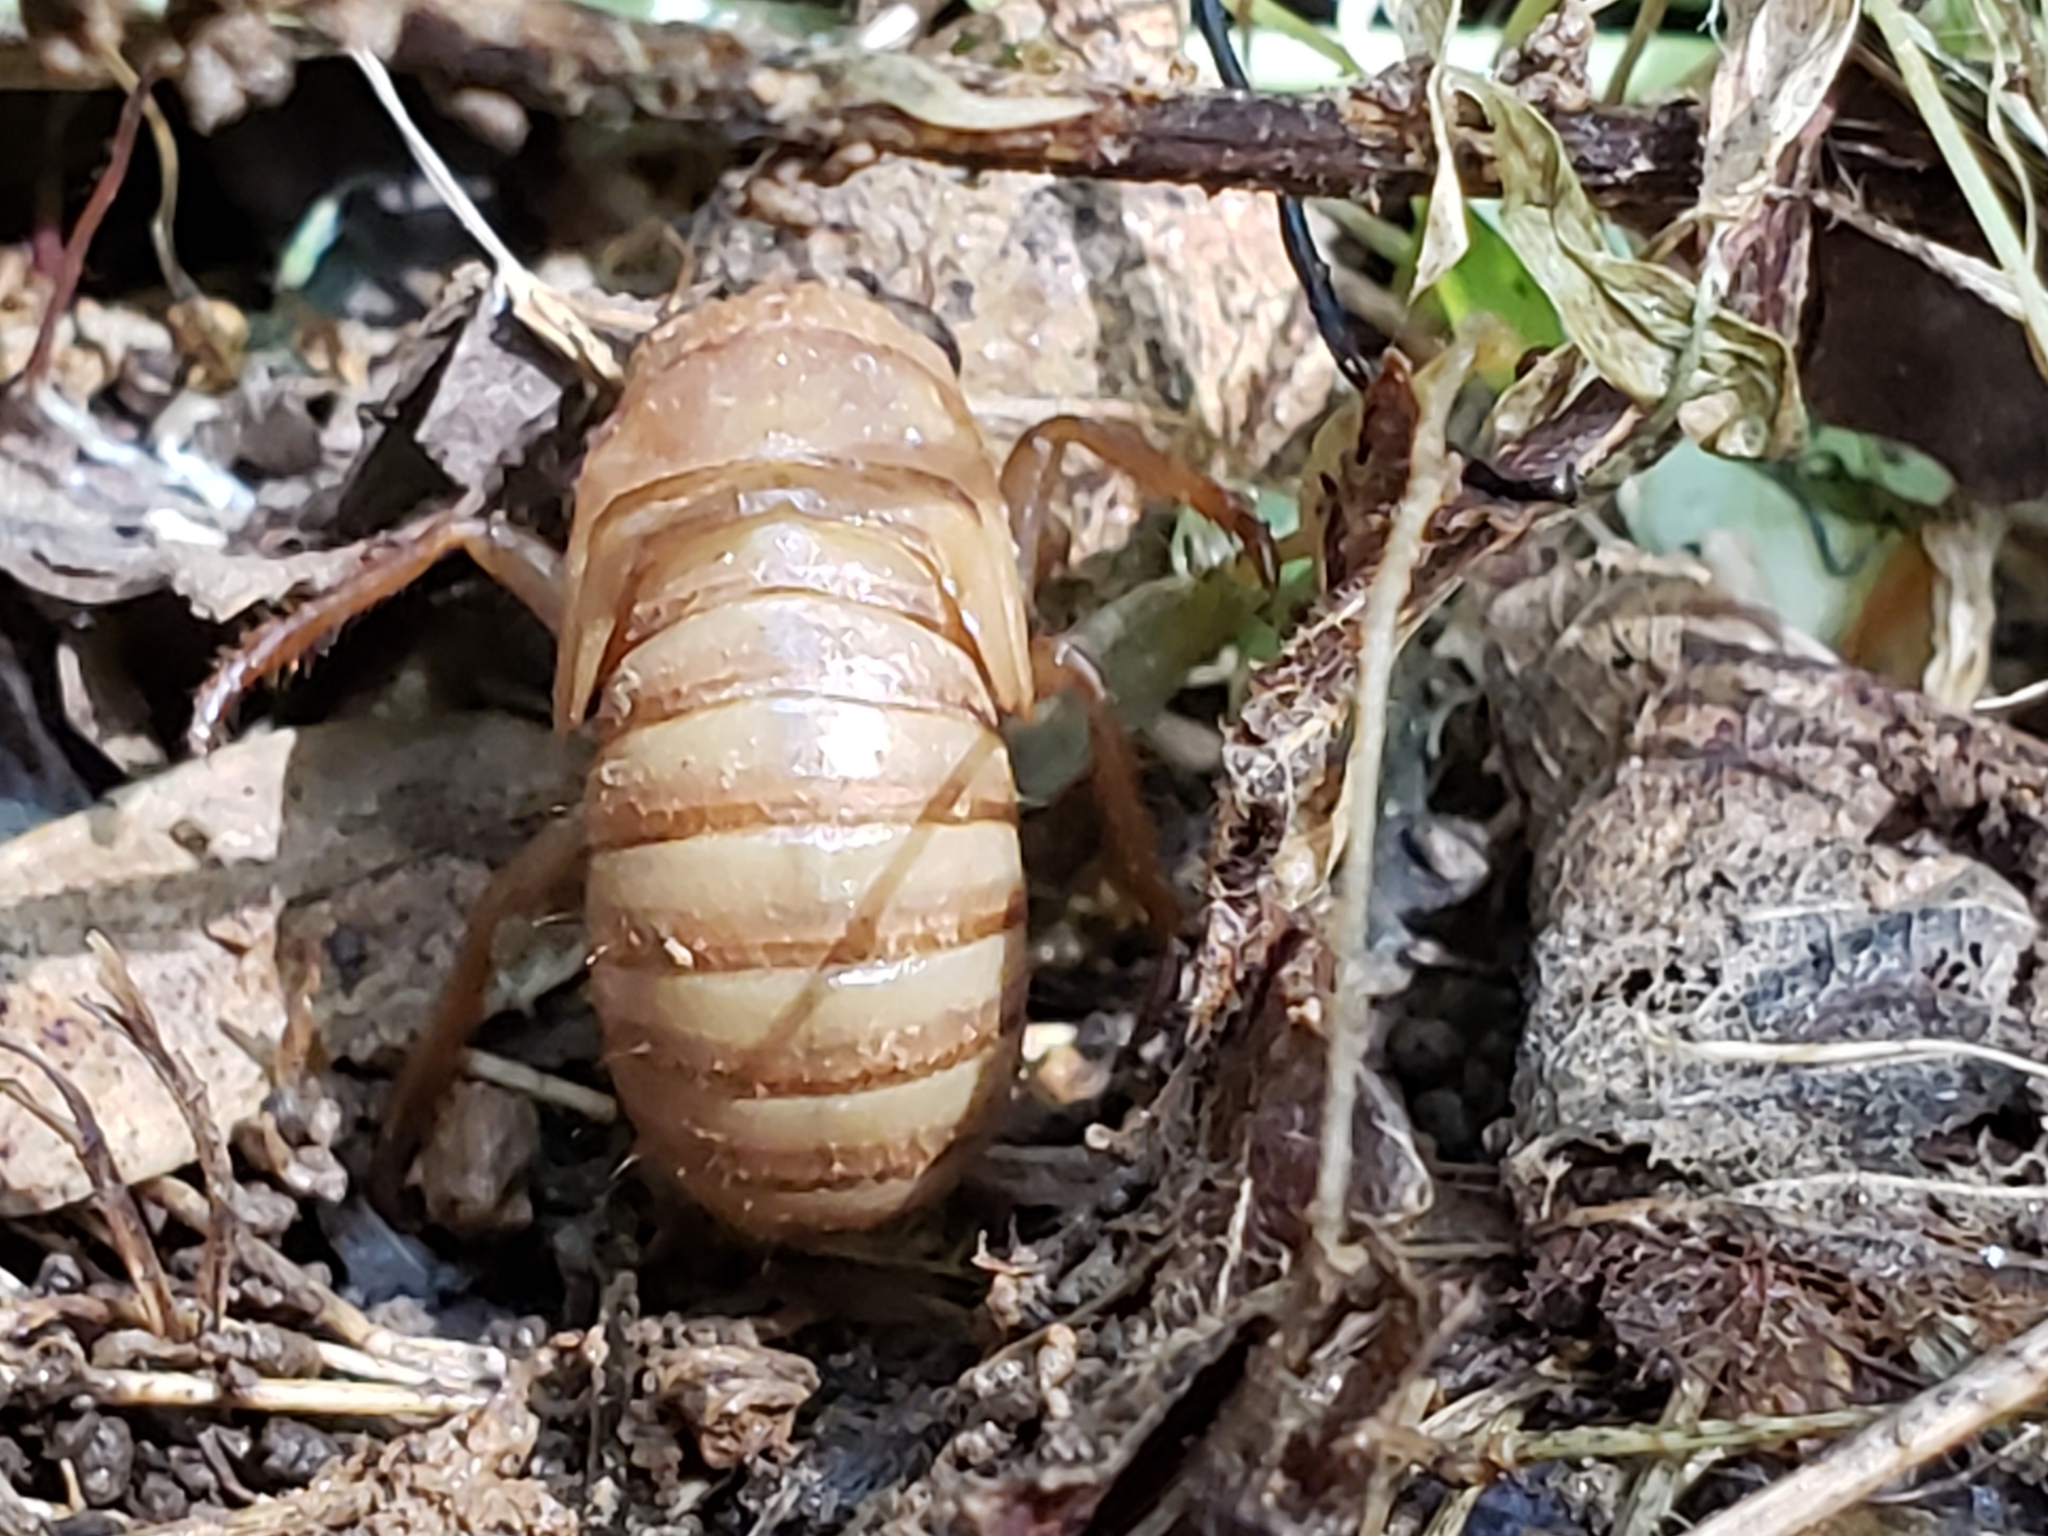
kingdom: Animalia
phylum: Arthropoda
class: Insecta
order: Hemiptera
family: Cicadidae
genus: Magicicada
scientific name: Magicicada
